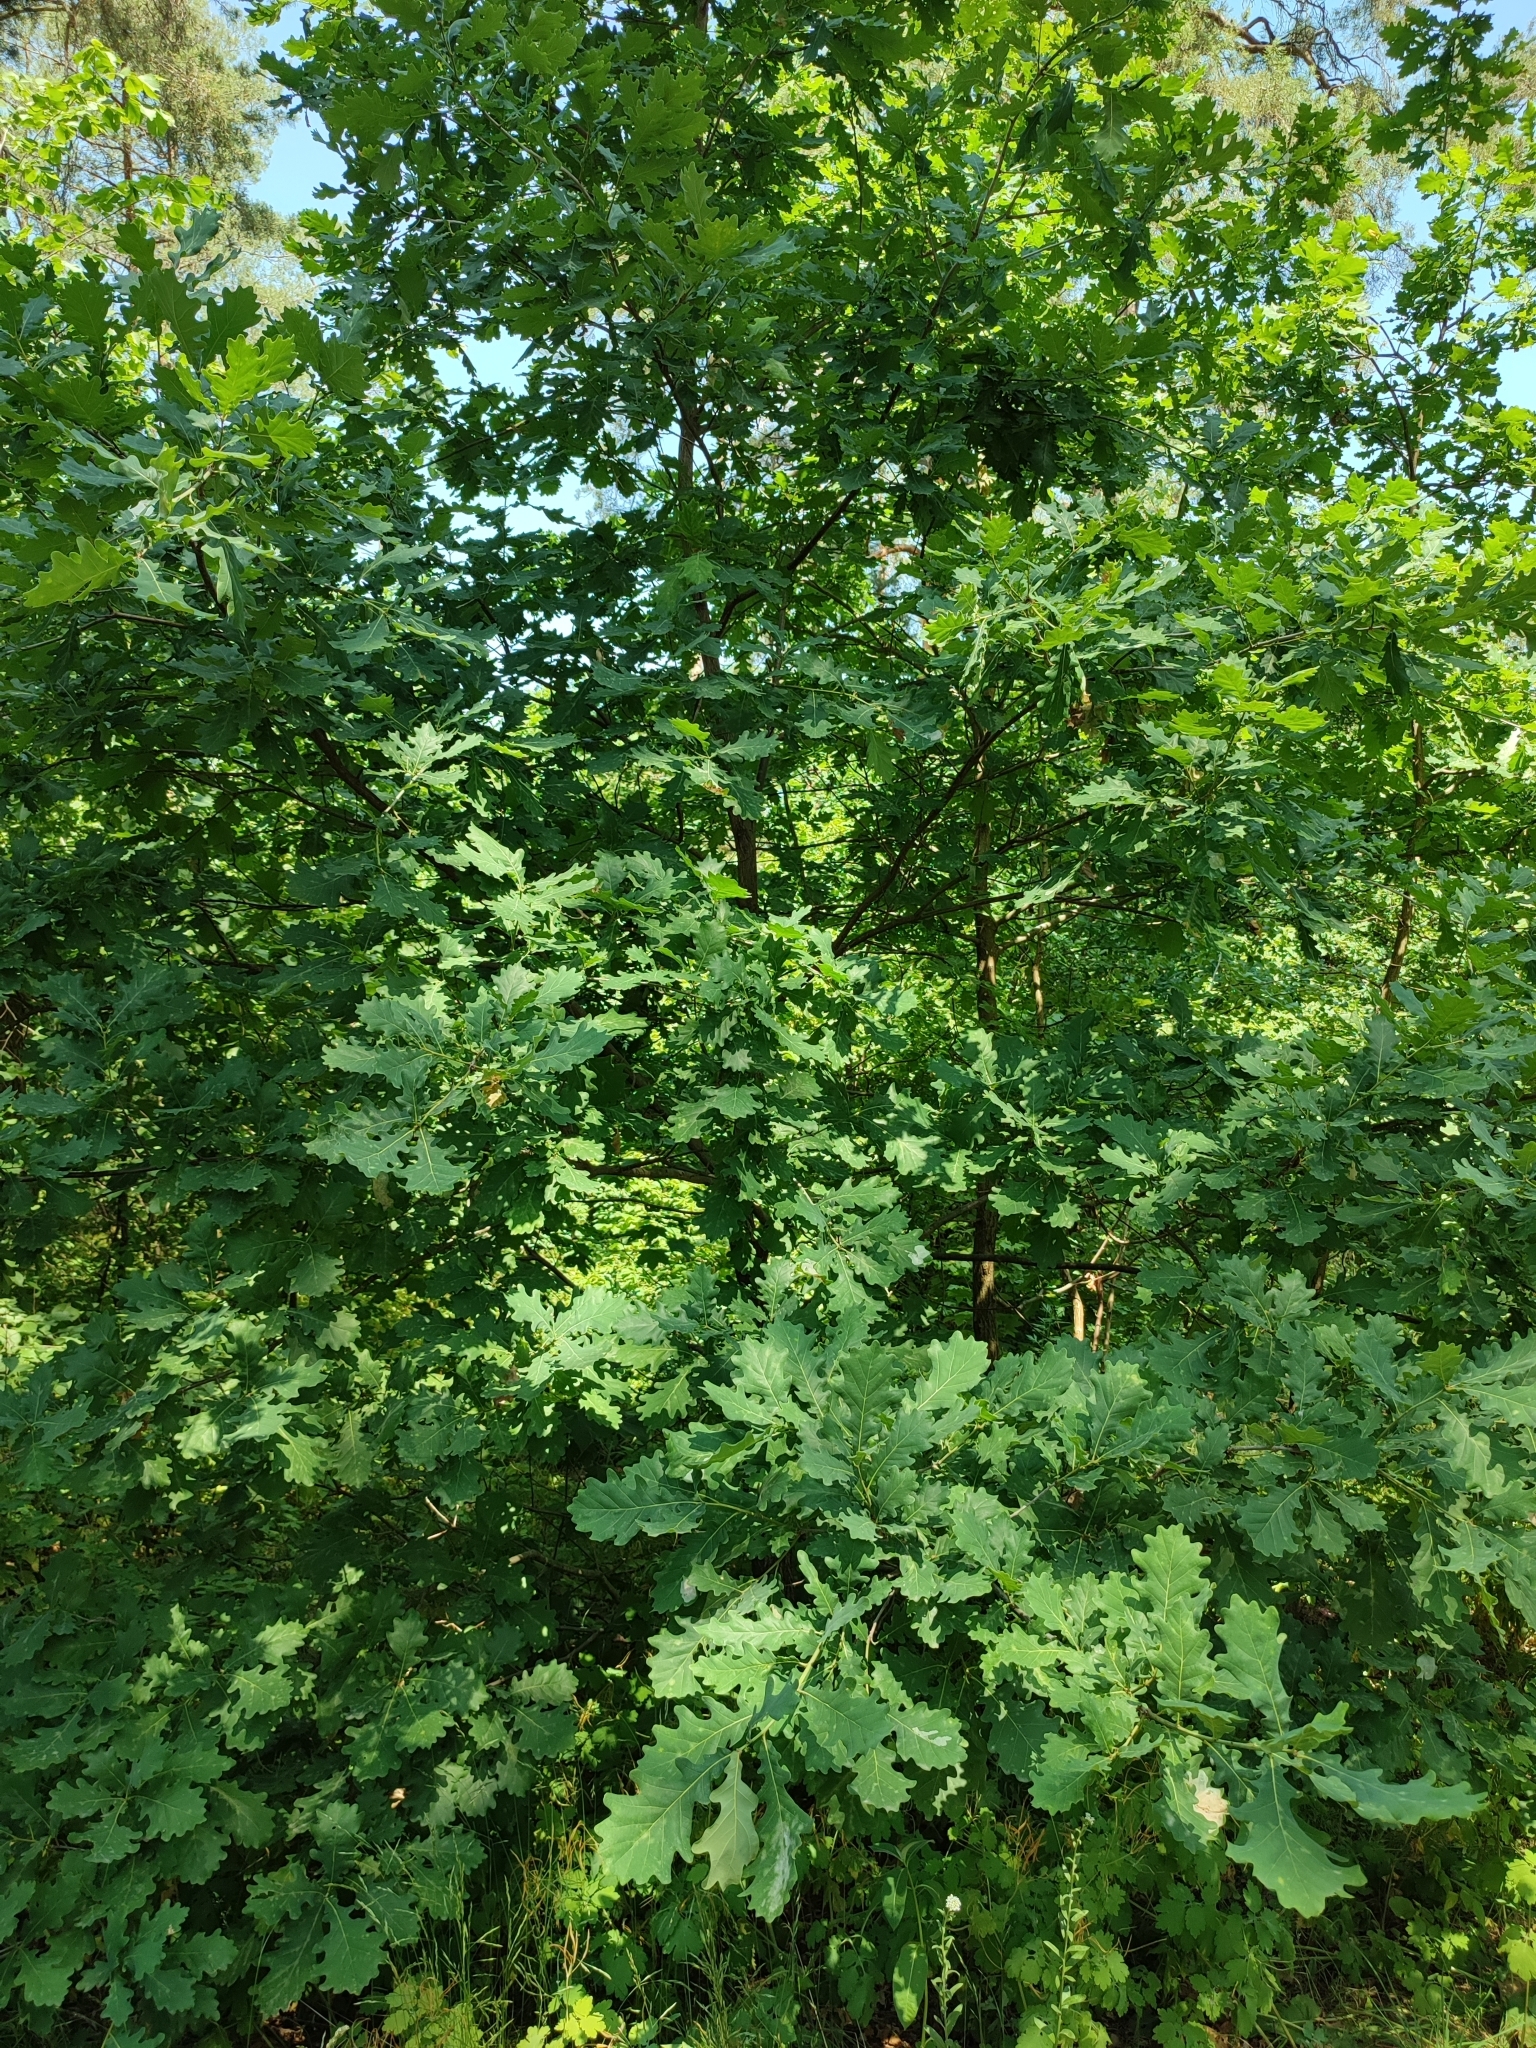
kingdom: Plantae
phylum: Tracheophyta
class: Magnoliopsida
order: Fagales
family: Fagaceae
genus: Quercus
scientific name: Quercus robur
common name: Pedunculate oak
